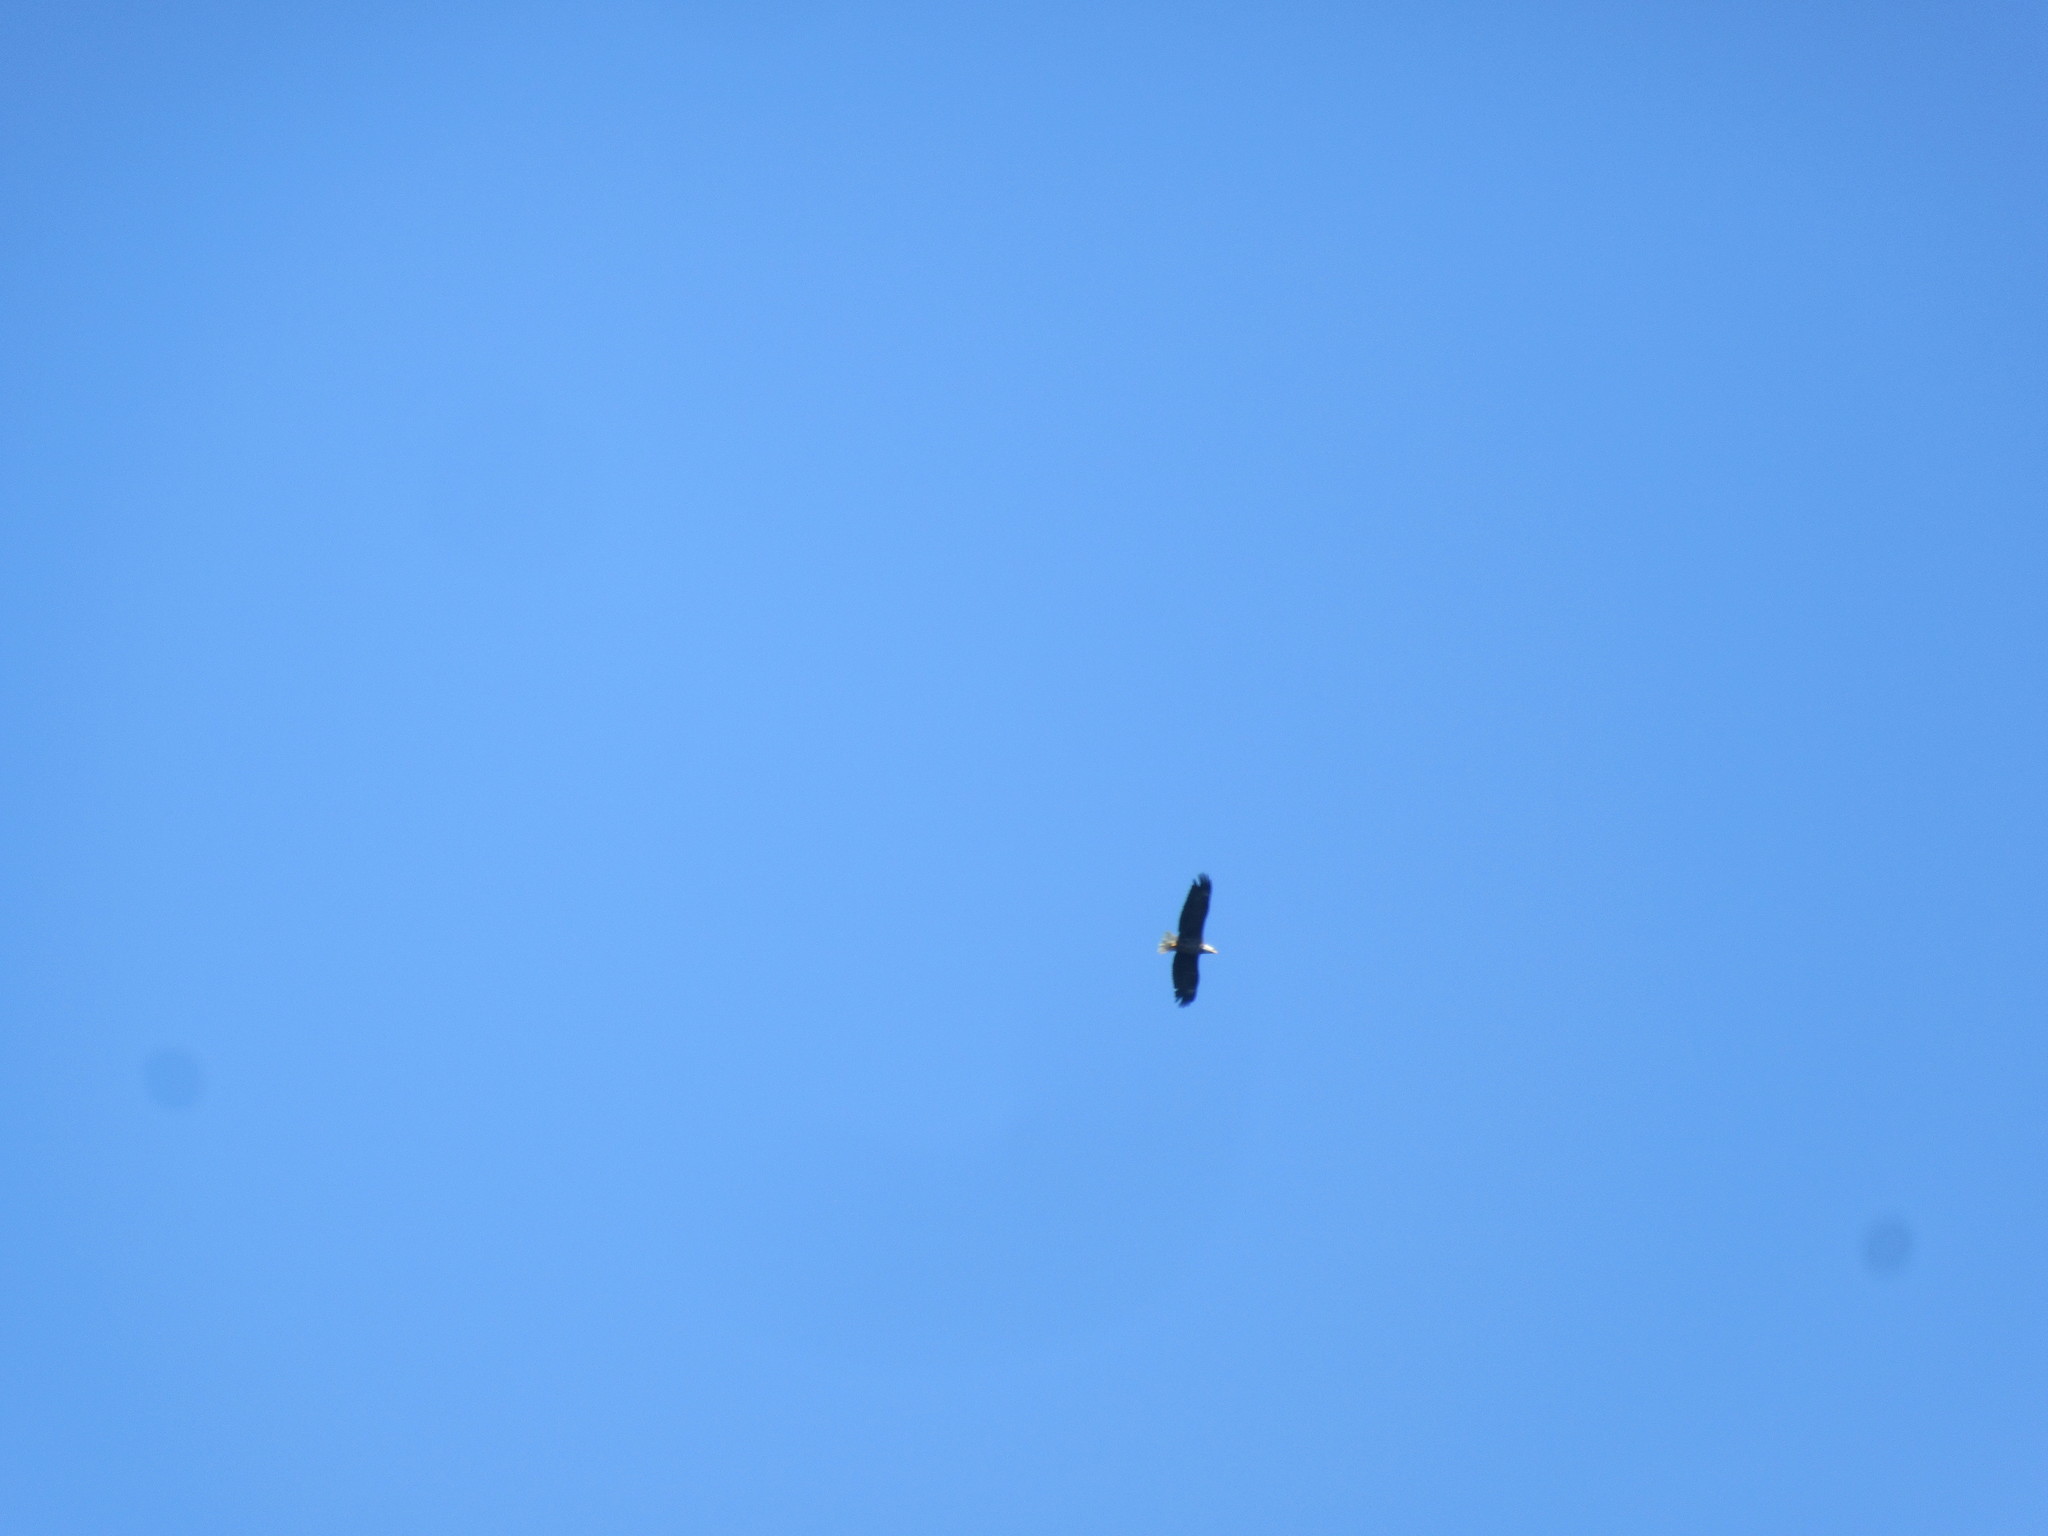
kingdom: Animalia
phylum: Chordata
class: Aves
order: Accipitriformes
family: Accipitridae
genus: Haliaeetus
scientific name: Haliaeetus leucocephalus
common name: Bald eagle
